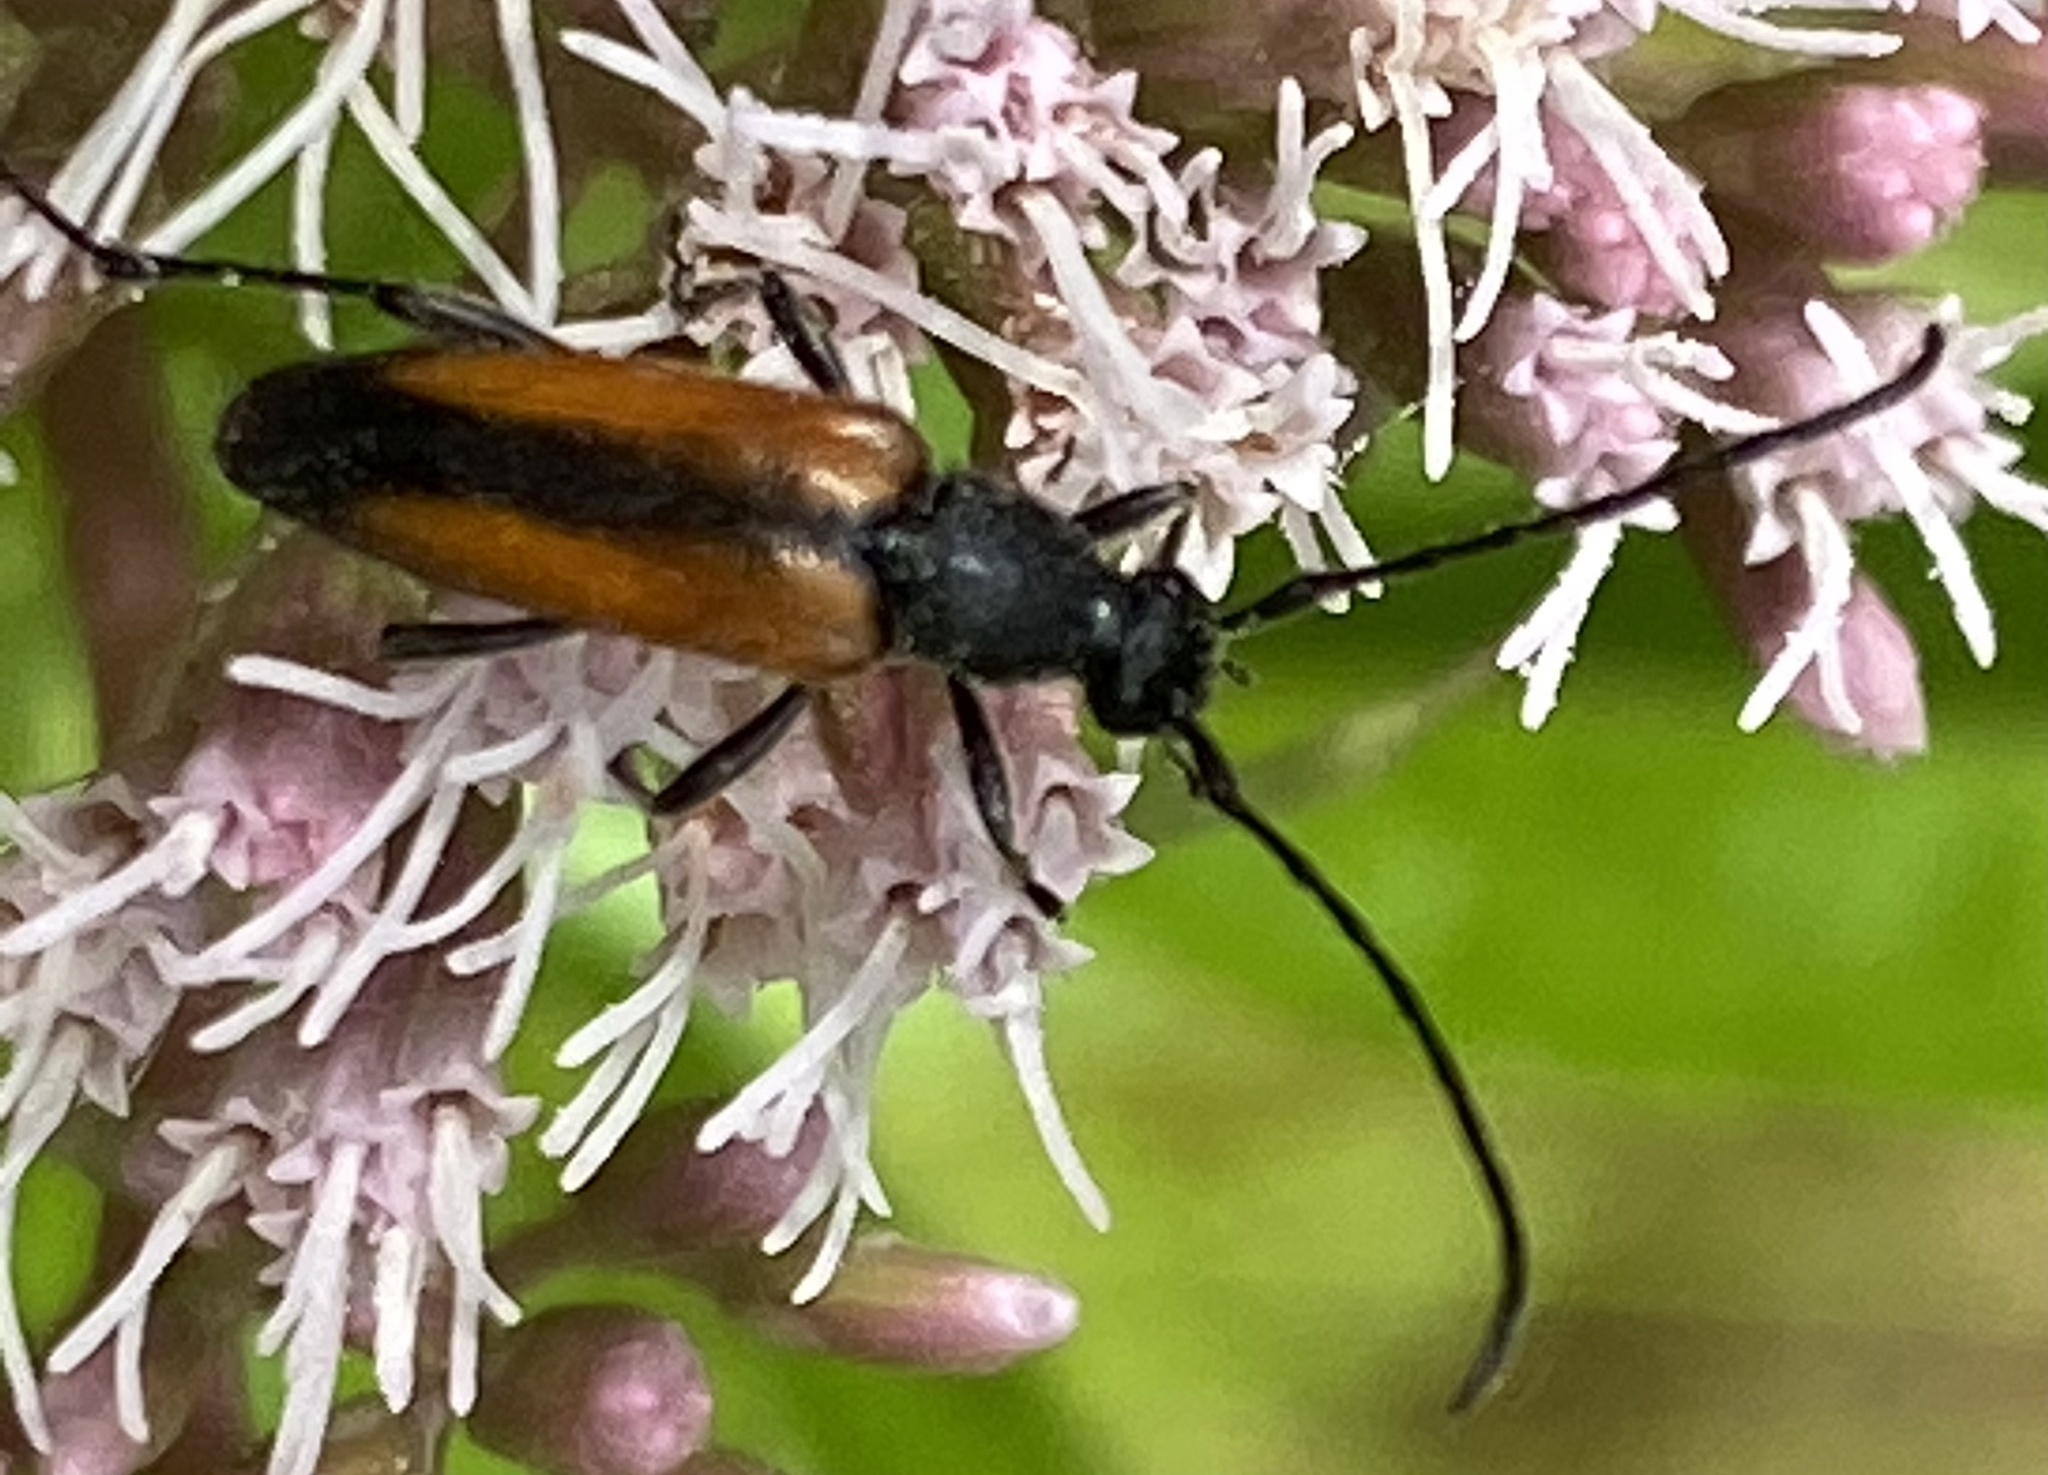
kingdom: Animalia
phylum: Arthropoda
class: Insecta
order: Coleoptera
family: Cerambycidae
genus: Stenurella
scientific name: Stenurella melanura
